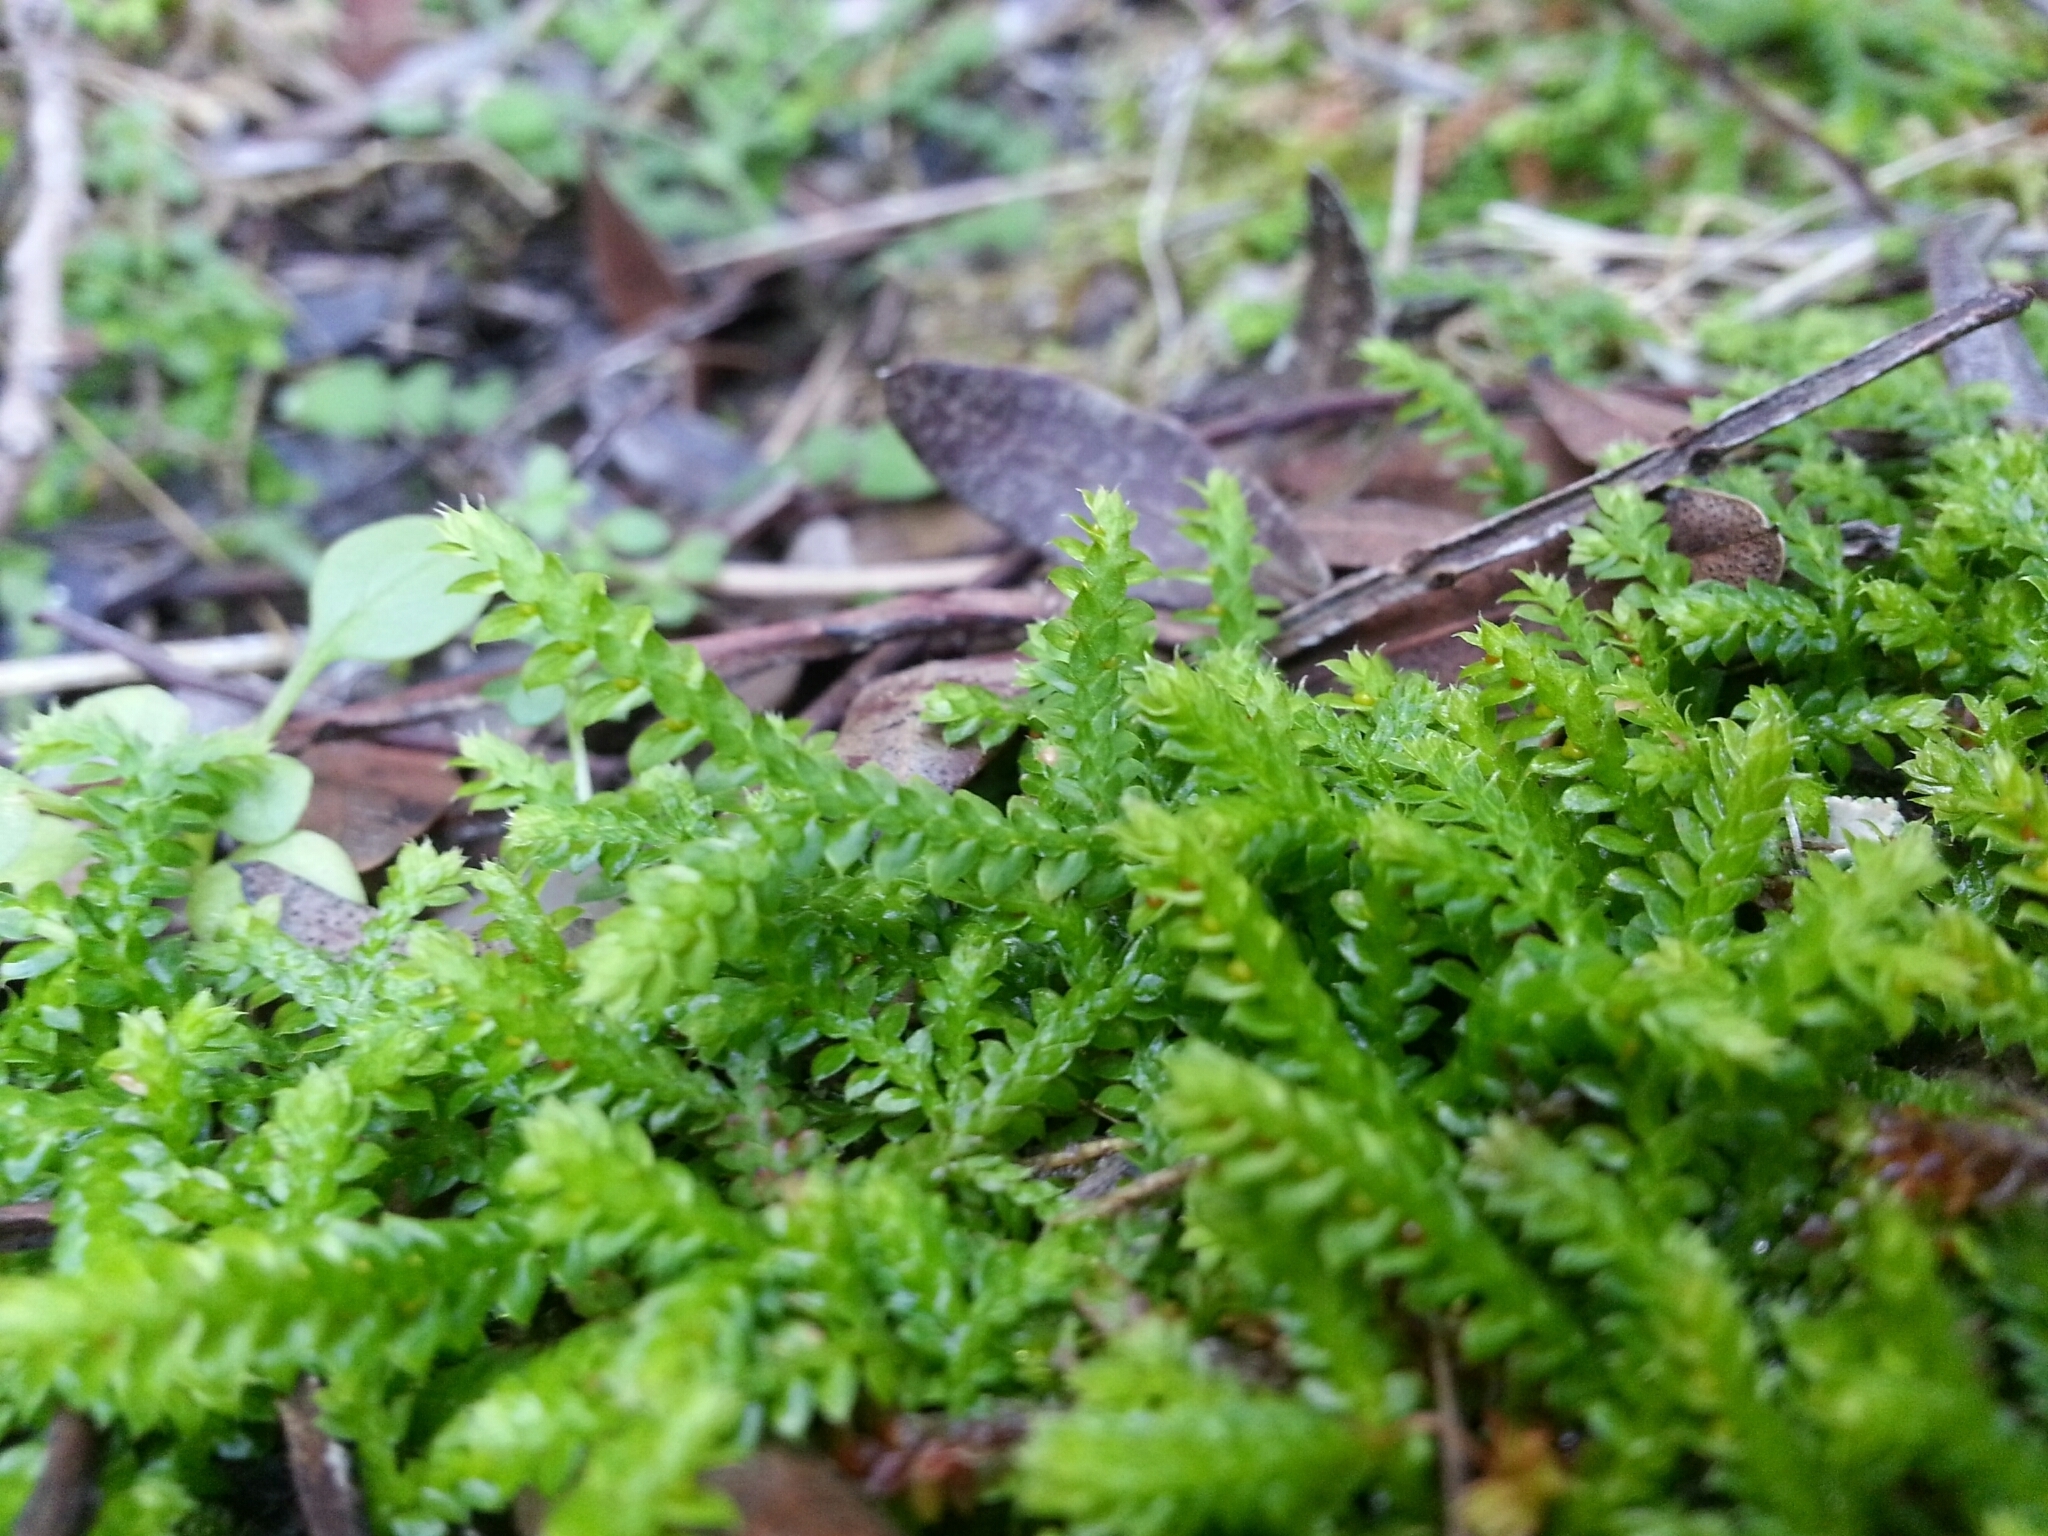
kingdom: Plantae
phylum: Tracheophyta
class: Lycopodiopsida
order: Selaginellales
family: Selaginellaceae
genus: Selaginella
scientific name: Selaginella denticulata
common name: Toothed-leaved clubmoss
